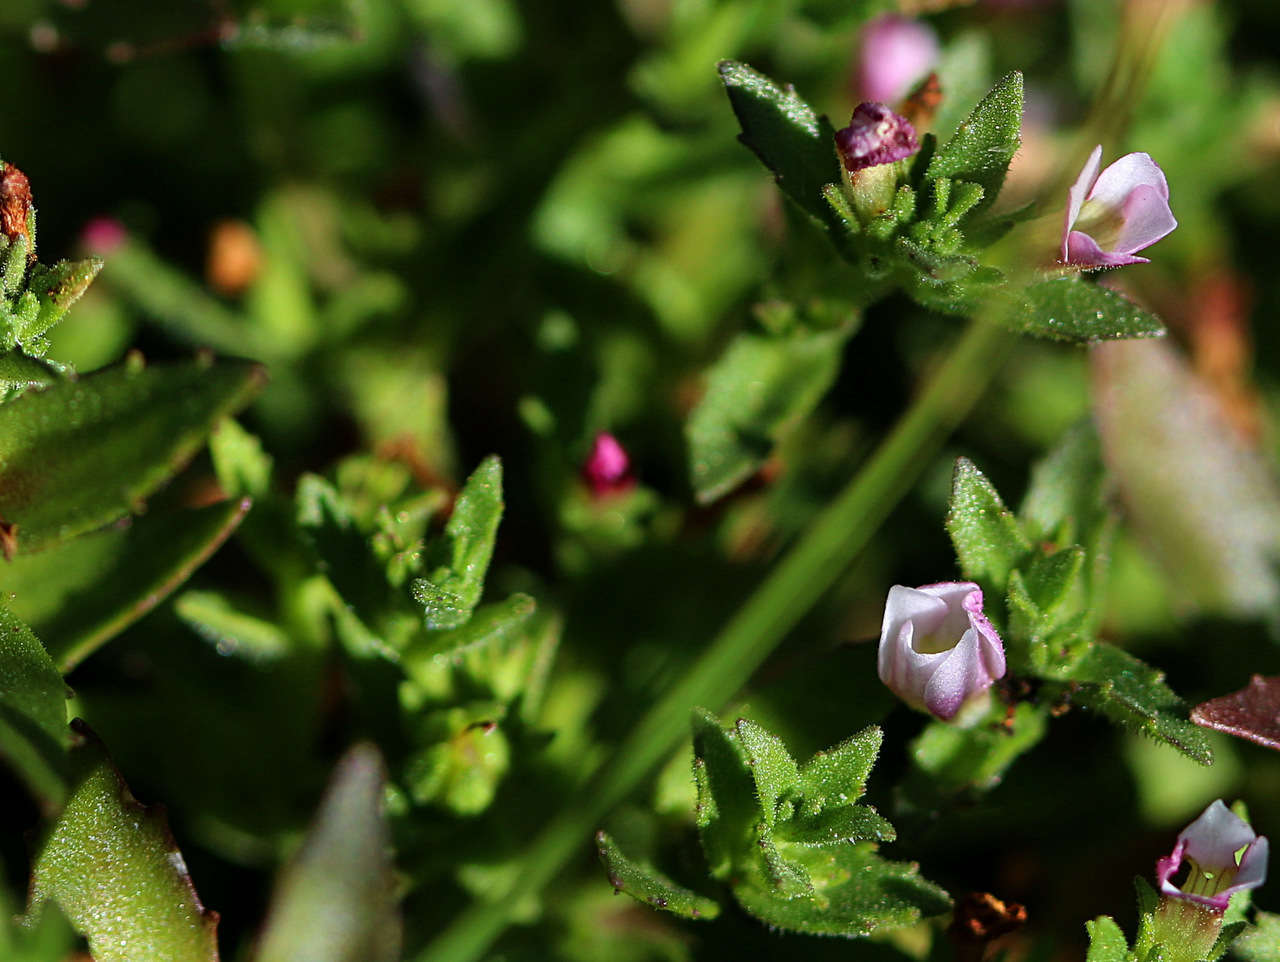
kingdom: Plantae
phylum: Tracheophyta
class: Magnoliopsida
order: Lamiales
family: Plantaginaceae
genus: Gratiola
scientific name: Gratiola pubescens
